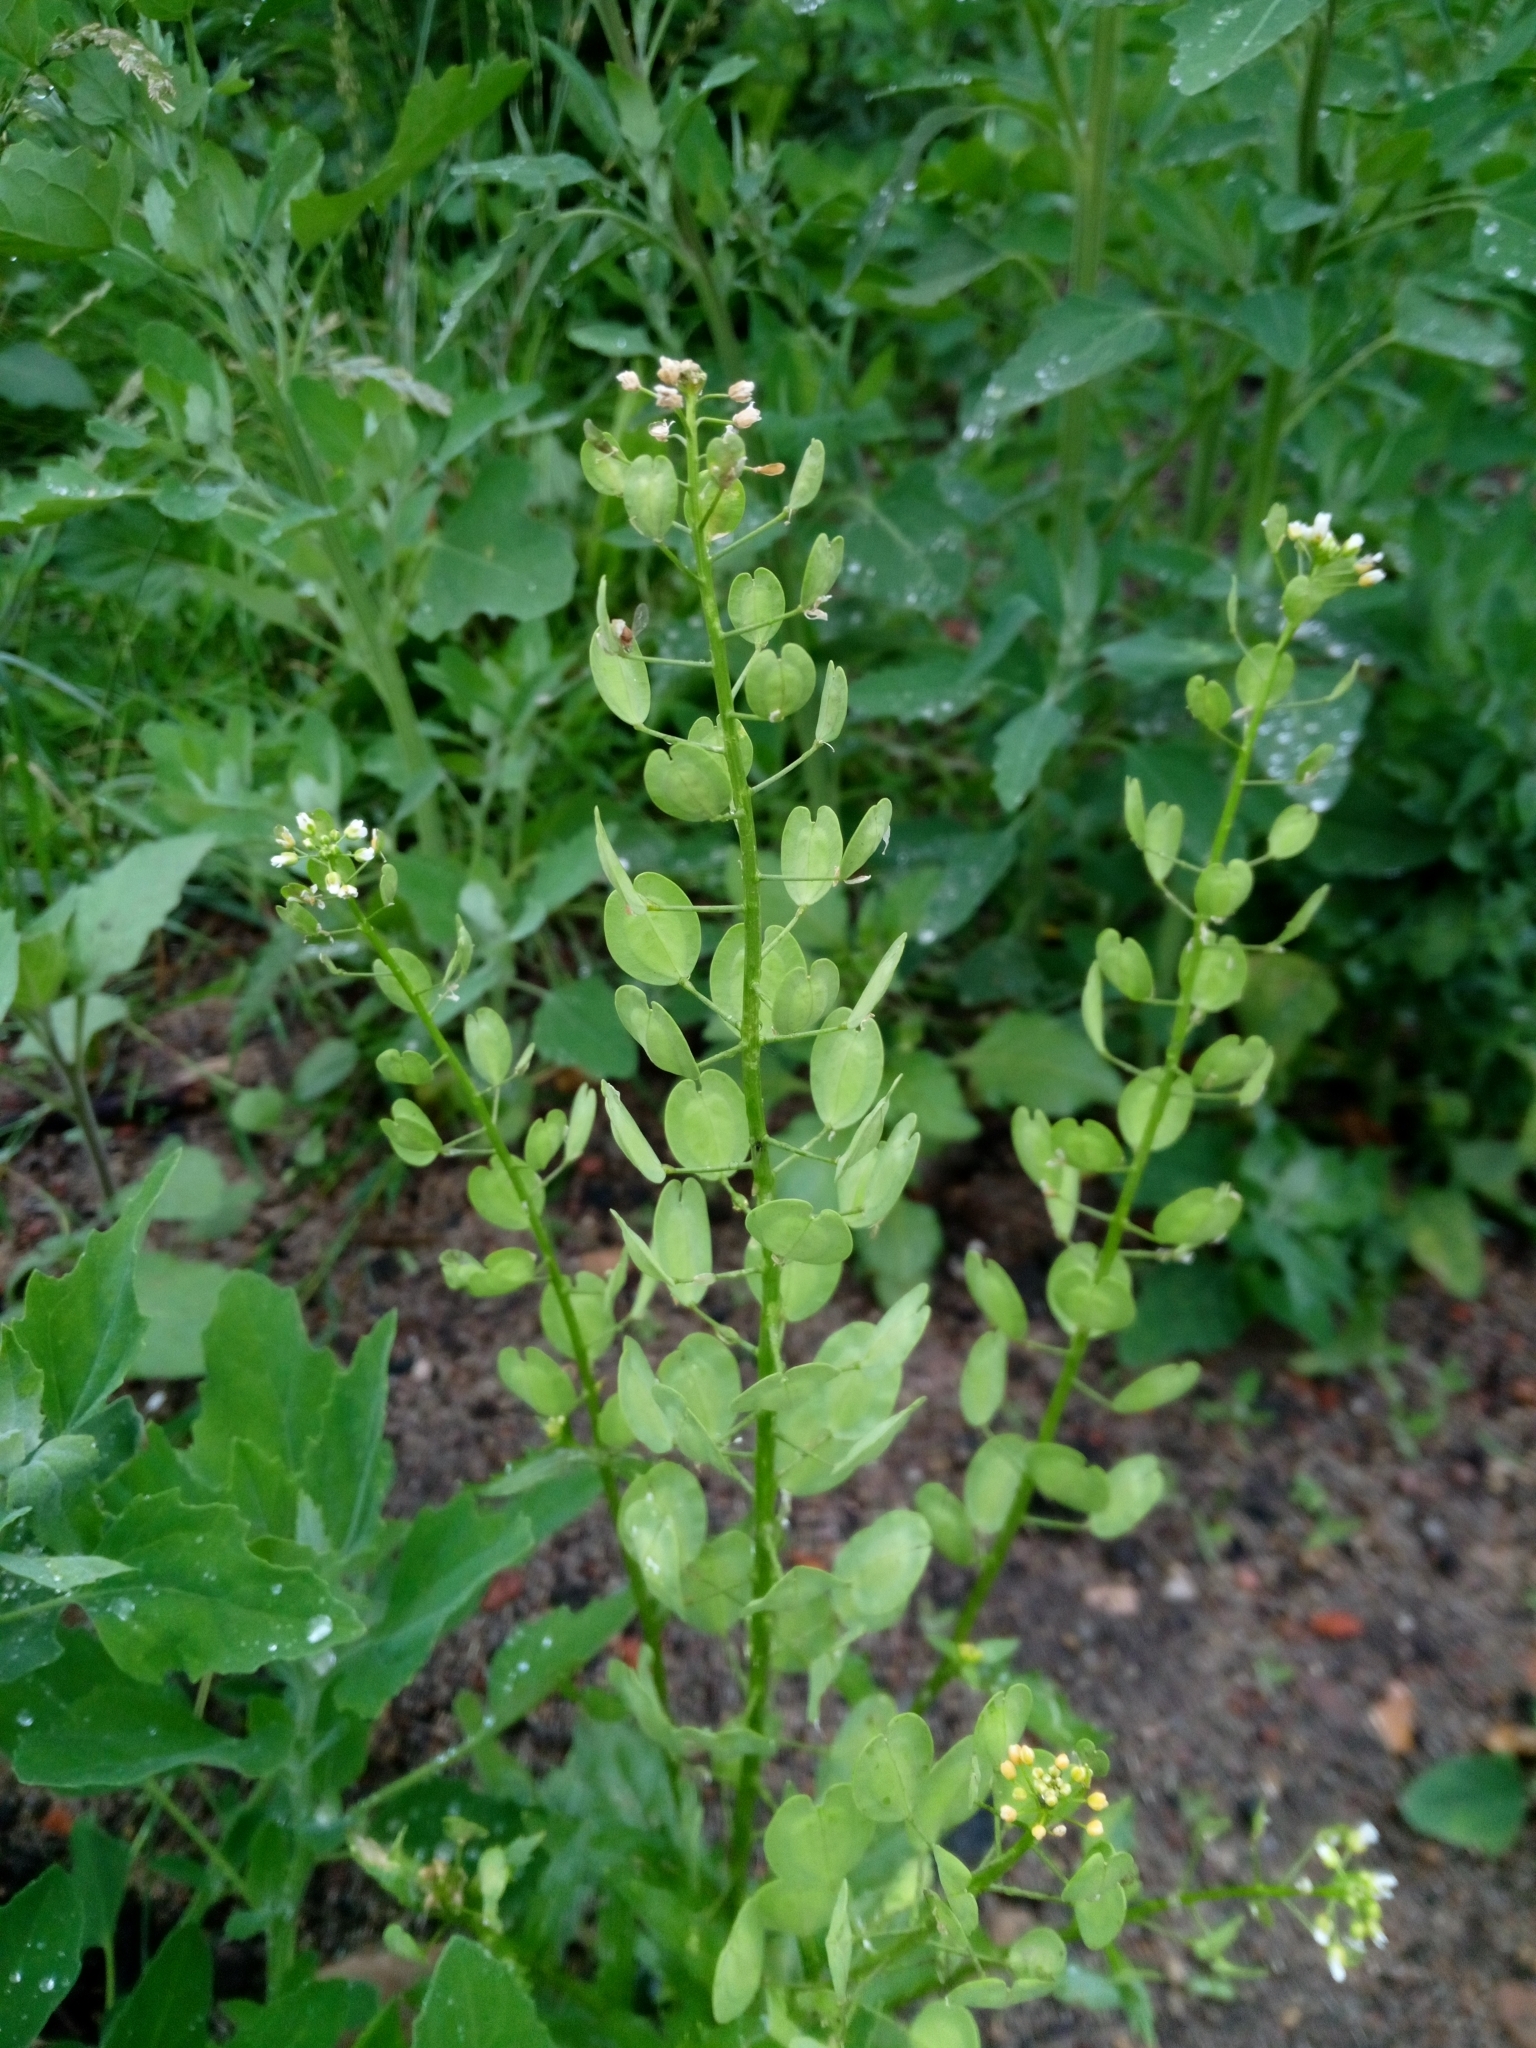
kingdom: Plantae
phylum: Tracheophyta
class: Magnoliopsida
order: Brassicales
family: Brassicaceae
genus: Thlaspi
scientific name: Thlaspi arvense
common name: Field pennycress
